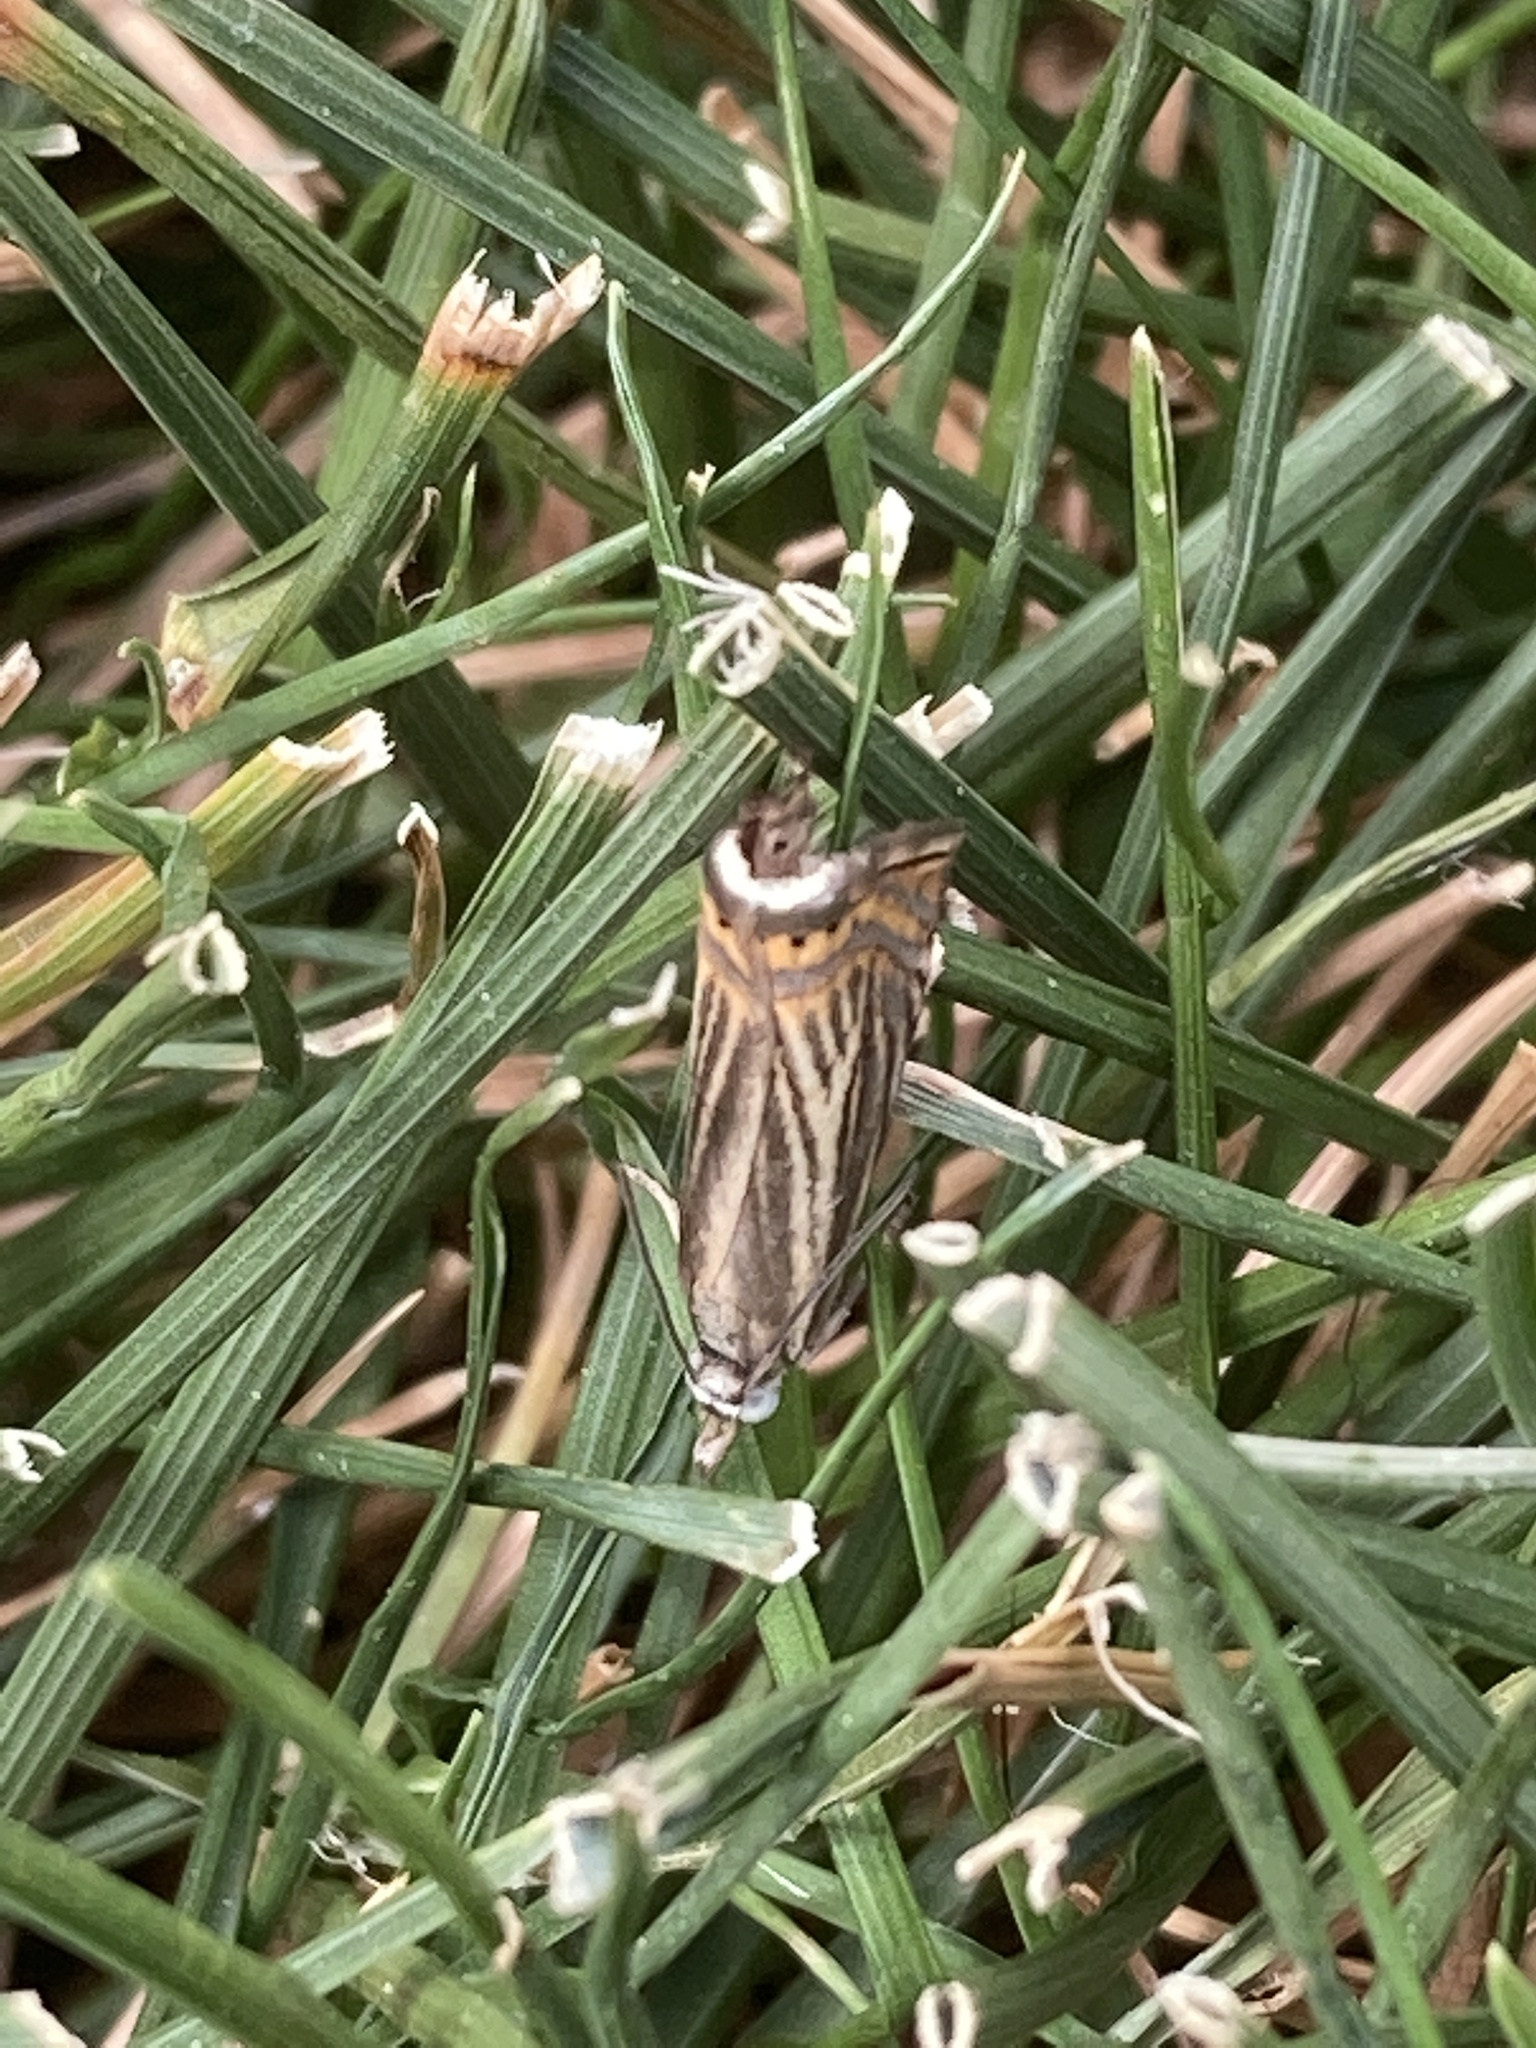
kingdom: Animalia
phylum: Arthropoda
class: Insecta
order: Lepidoptera
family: Crambidae
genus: Chrysoteuchia
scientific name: Chrysoteuchia topiarius
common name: Topiary grass-veneer
